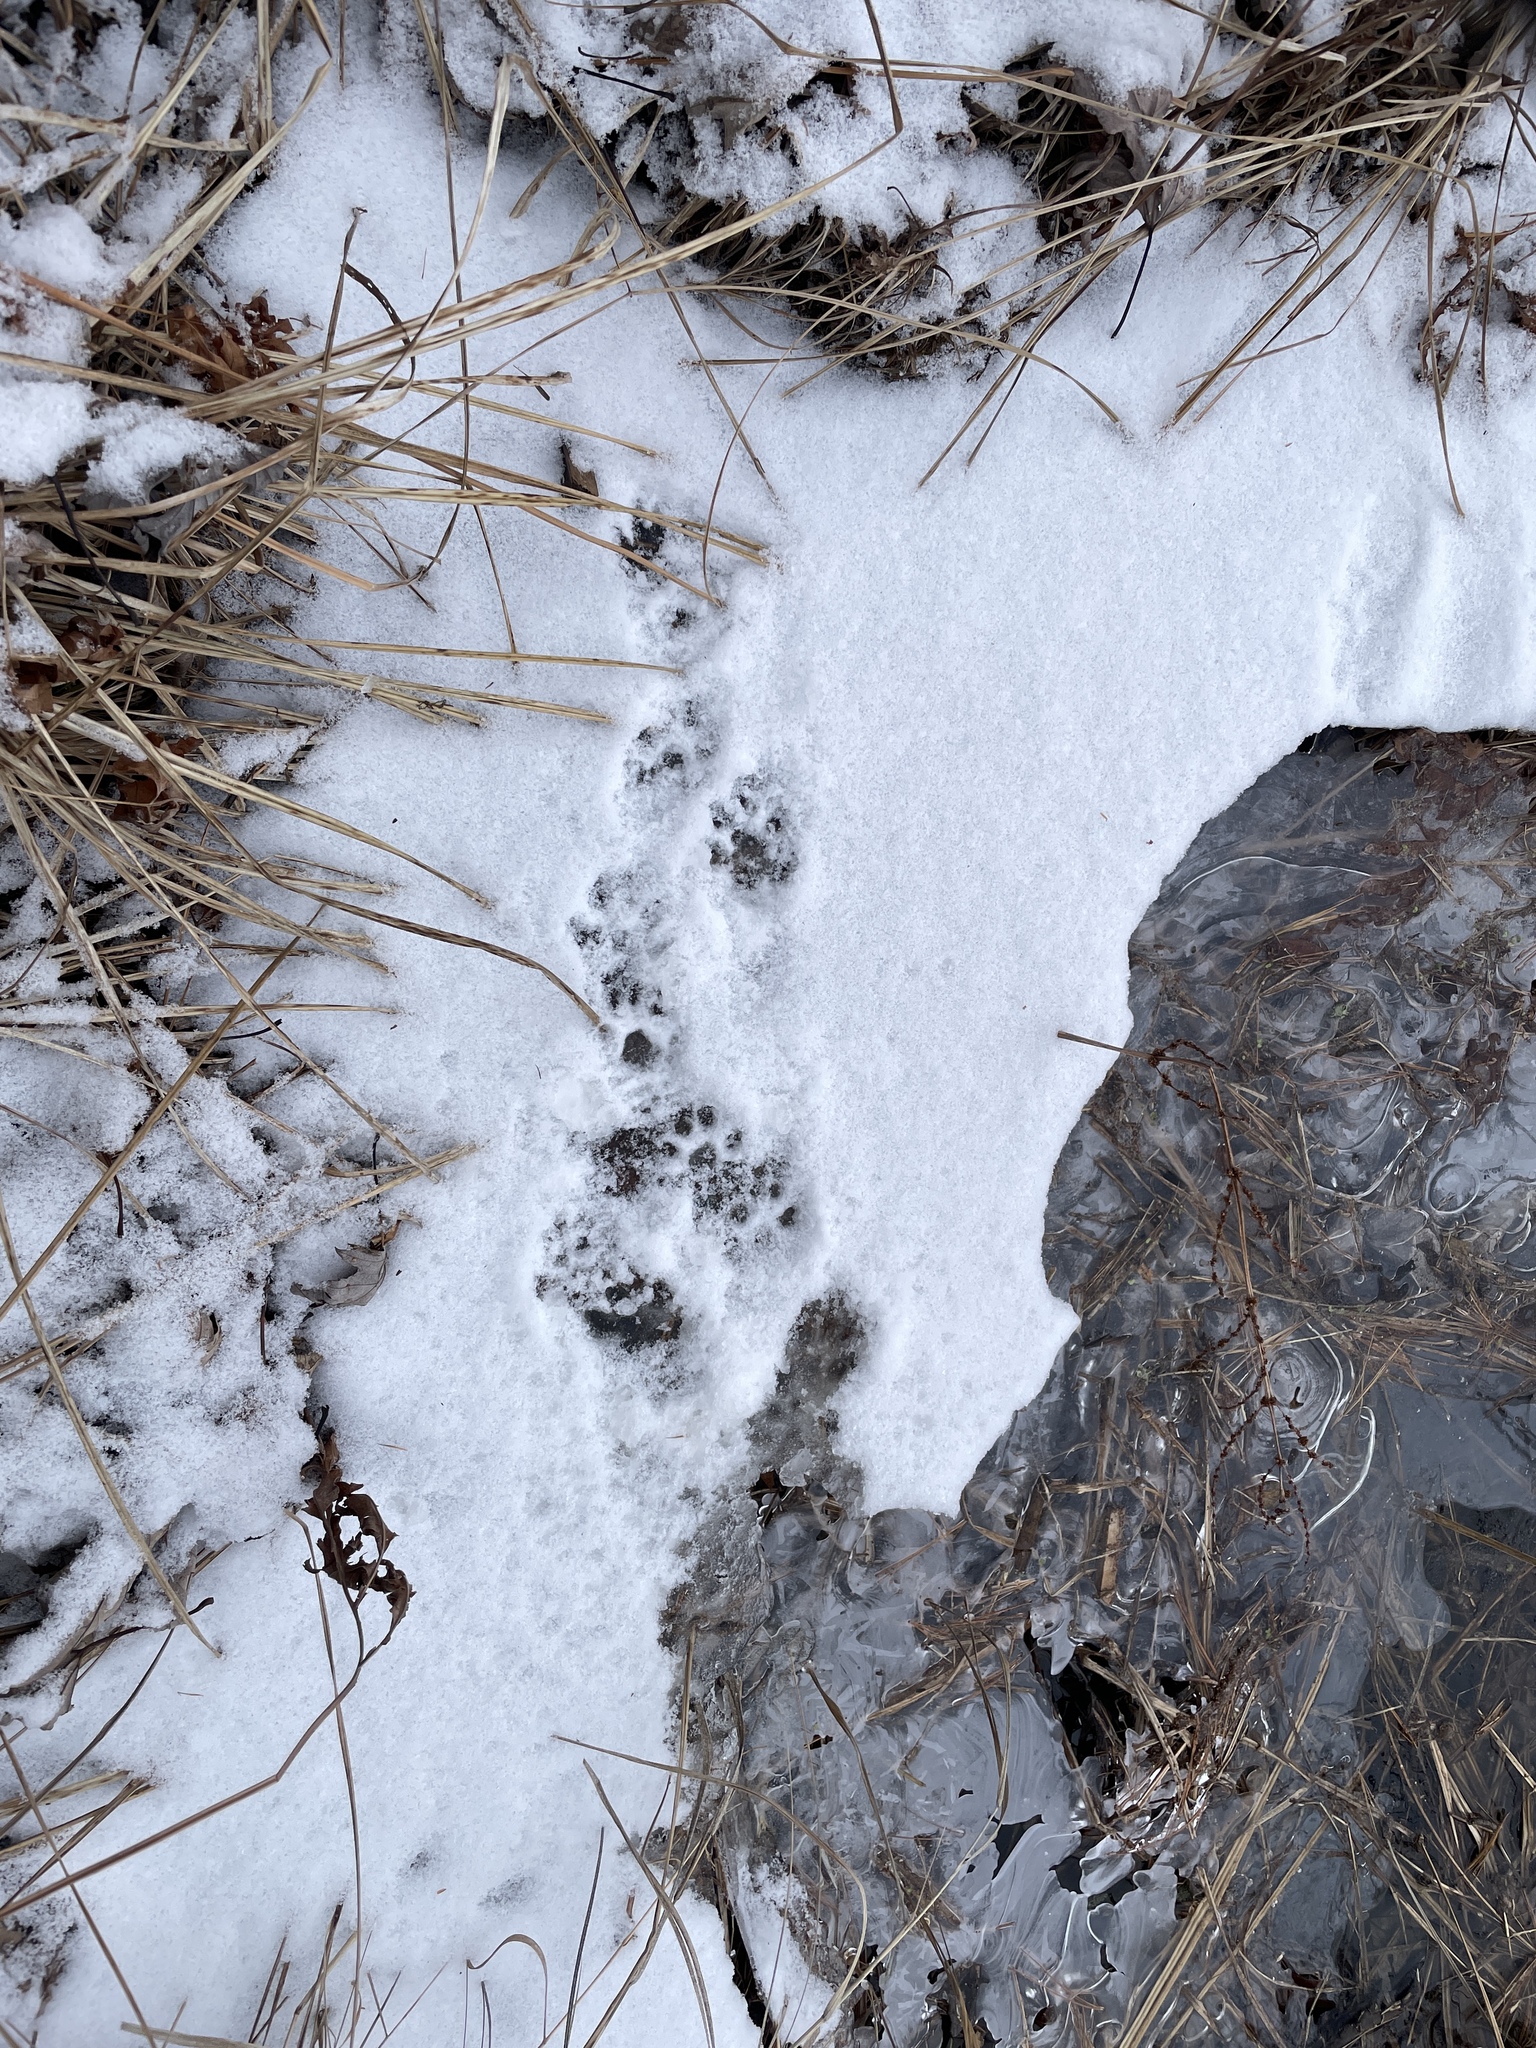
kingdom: Animalia
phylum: Chordata
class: Mammalia
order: Carnivora
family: Mustelidae
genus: Mustela
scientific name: Mustela
